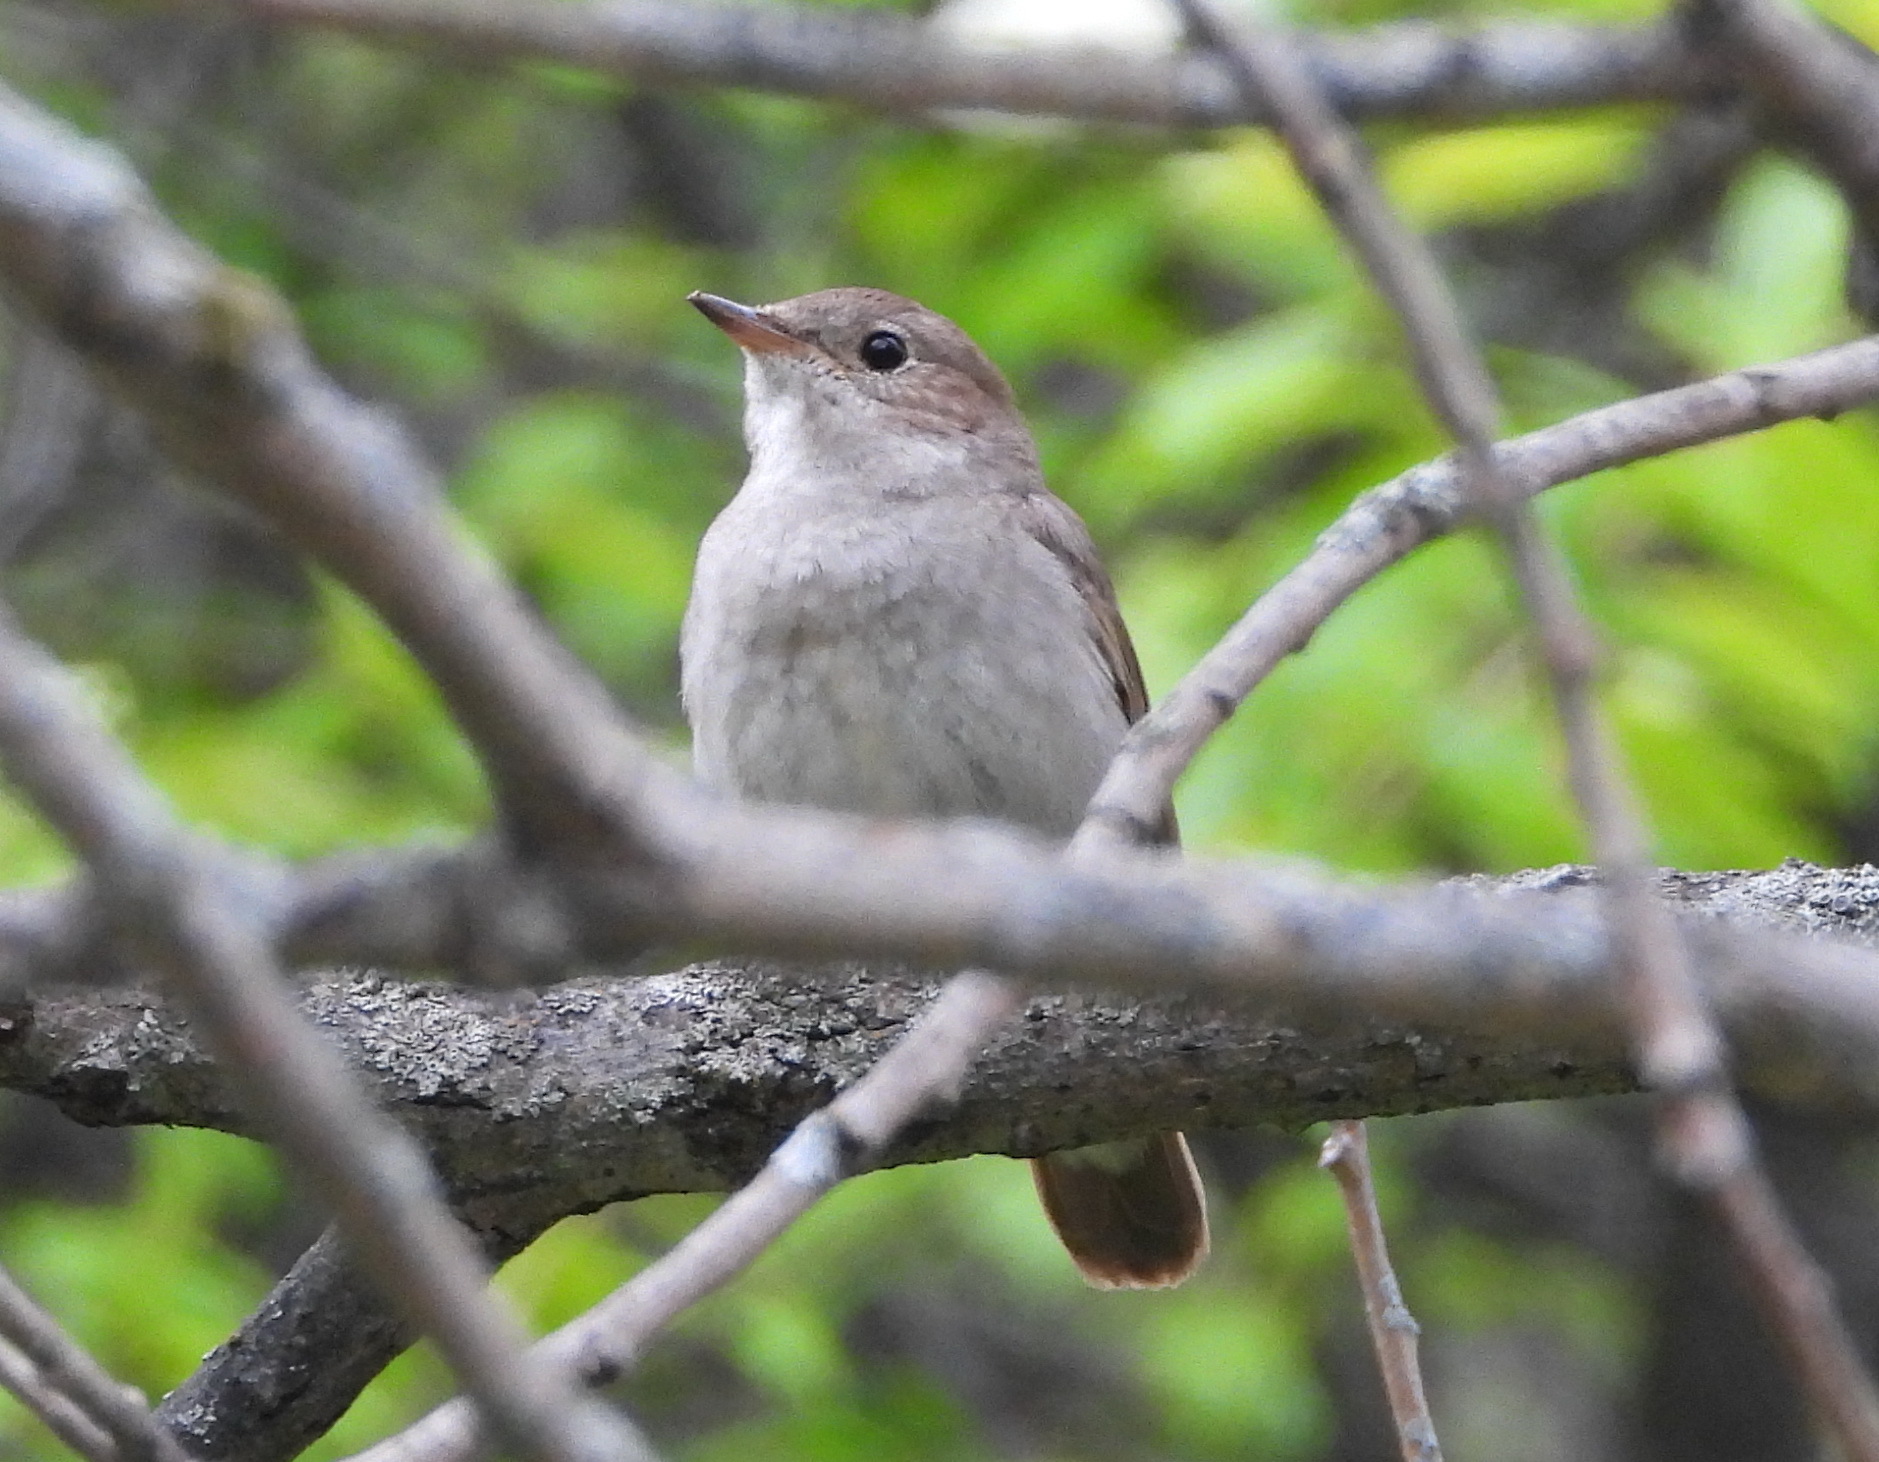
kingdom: Animalia
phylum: Chordata
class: Aves
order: Passeriformes
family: Muscicapidae
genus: Luscinia
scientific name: Luscinia luscinia
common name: Thrush nightingale
